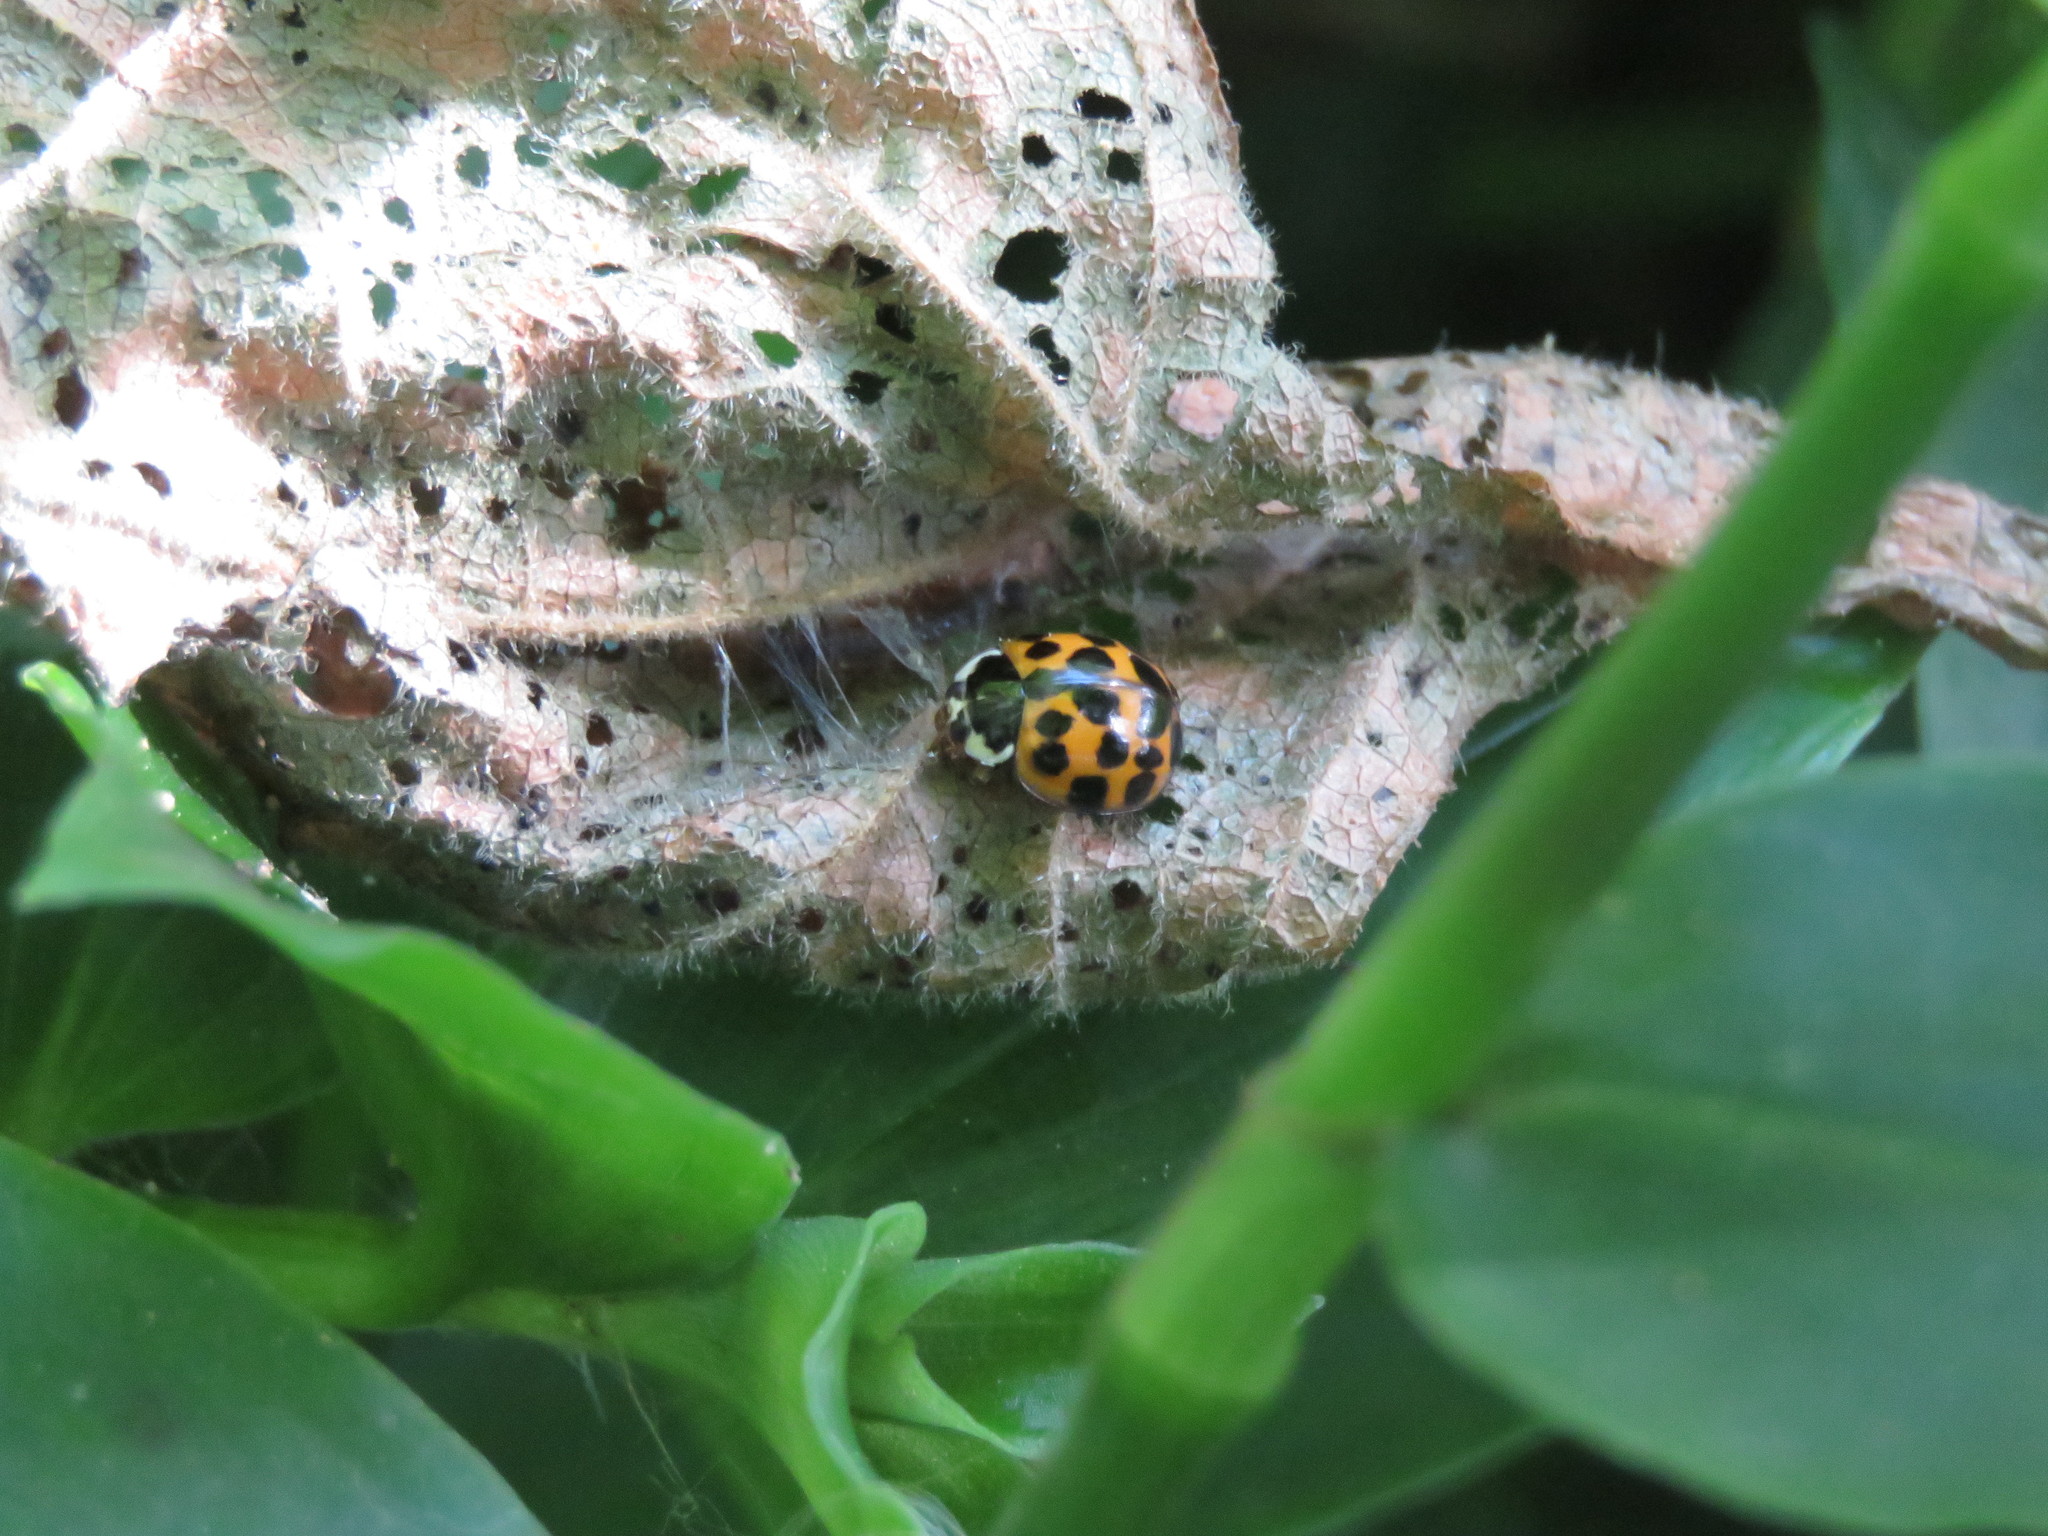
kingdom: Animalia
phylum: Arthropoda
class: Insecta
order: Coleoptera
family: Coccinellidae
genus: Harmonia
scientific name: Harmonia axyridis
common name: Harlequin ladybird
